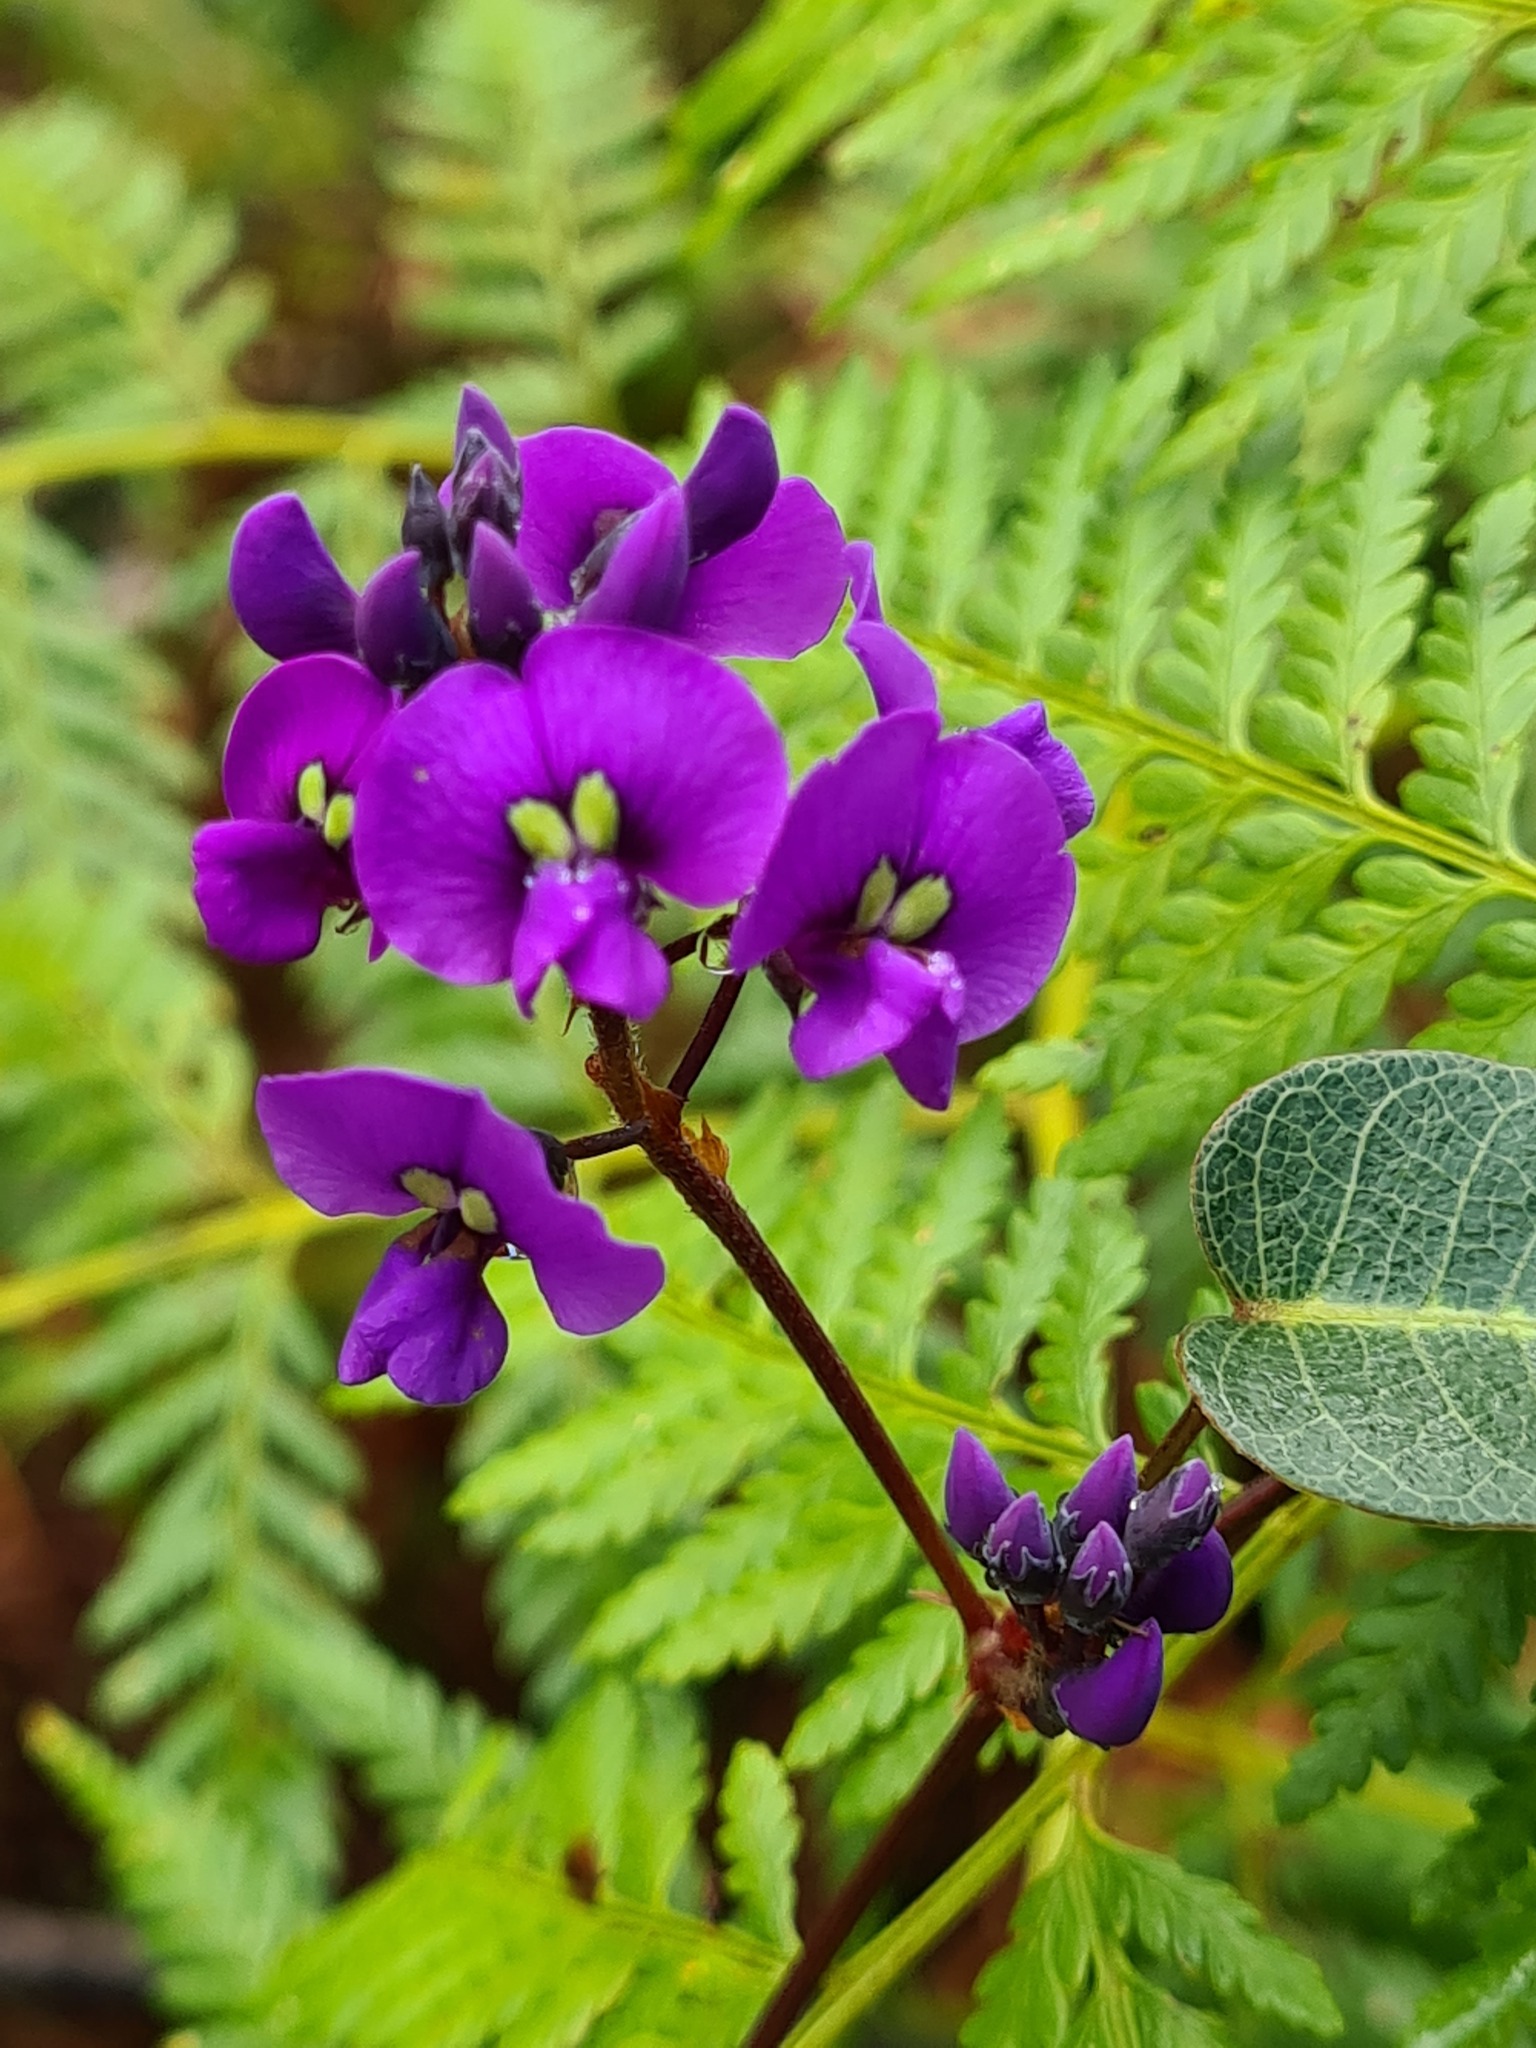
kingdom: Plantae
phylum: Tracheophyta
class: Magnoliopsida
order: Fabales
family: Fabaceae
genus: Hardenbergia
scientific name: Hardenbergia violacea
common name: Coral-pea
